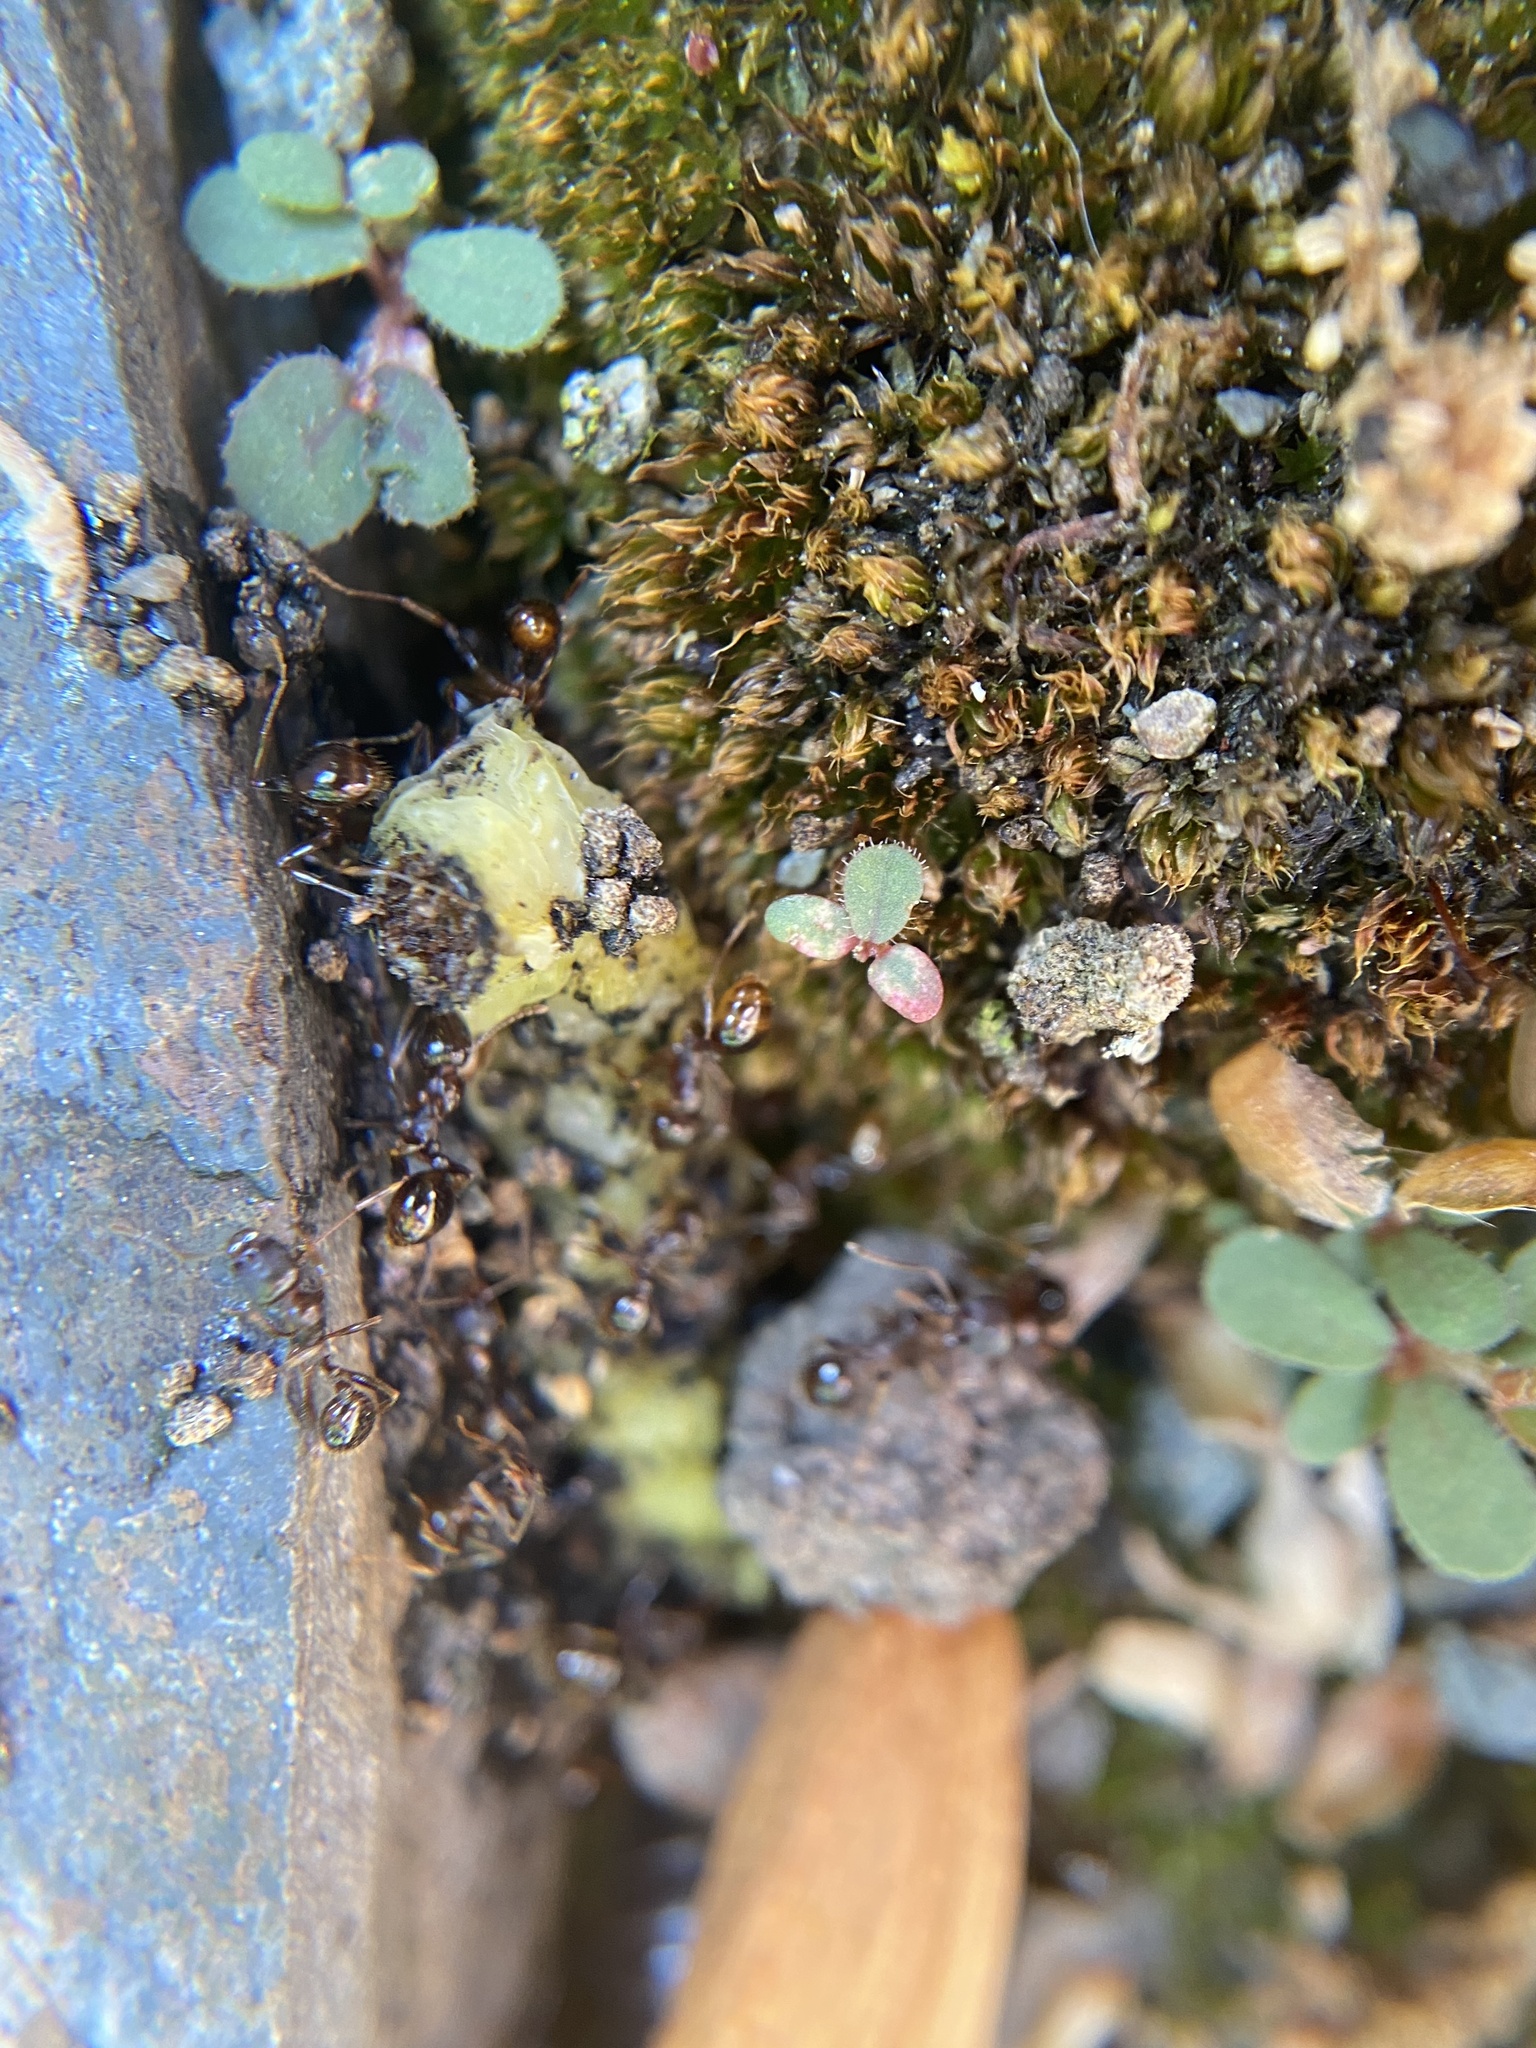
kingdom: Animalia
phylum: Arthropoda
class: Insecta
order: Hymenoptera
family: Formicidae
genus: Aphaenogaster
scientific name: Aphaenogaster occidentalis
